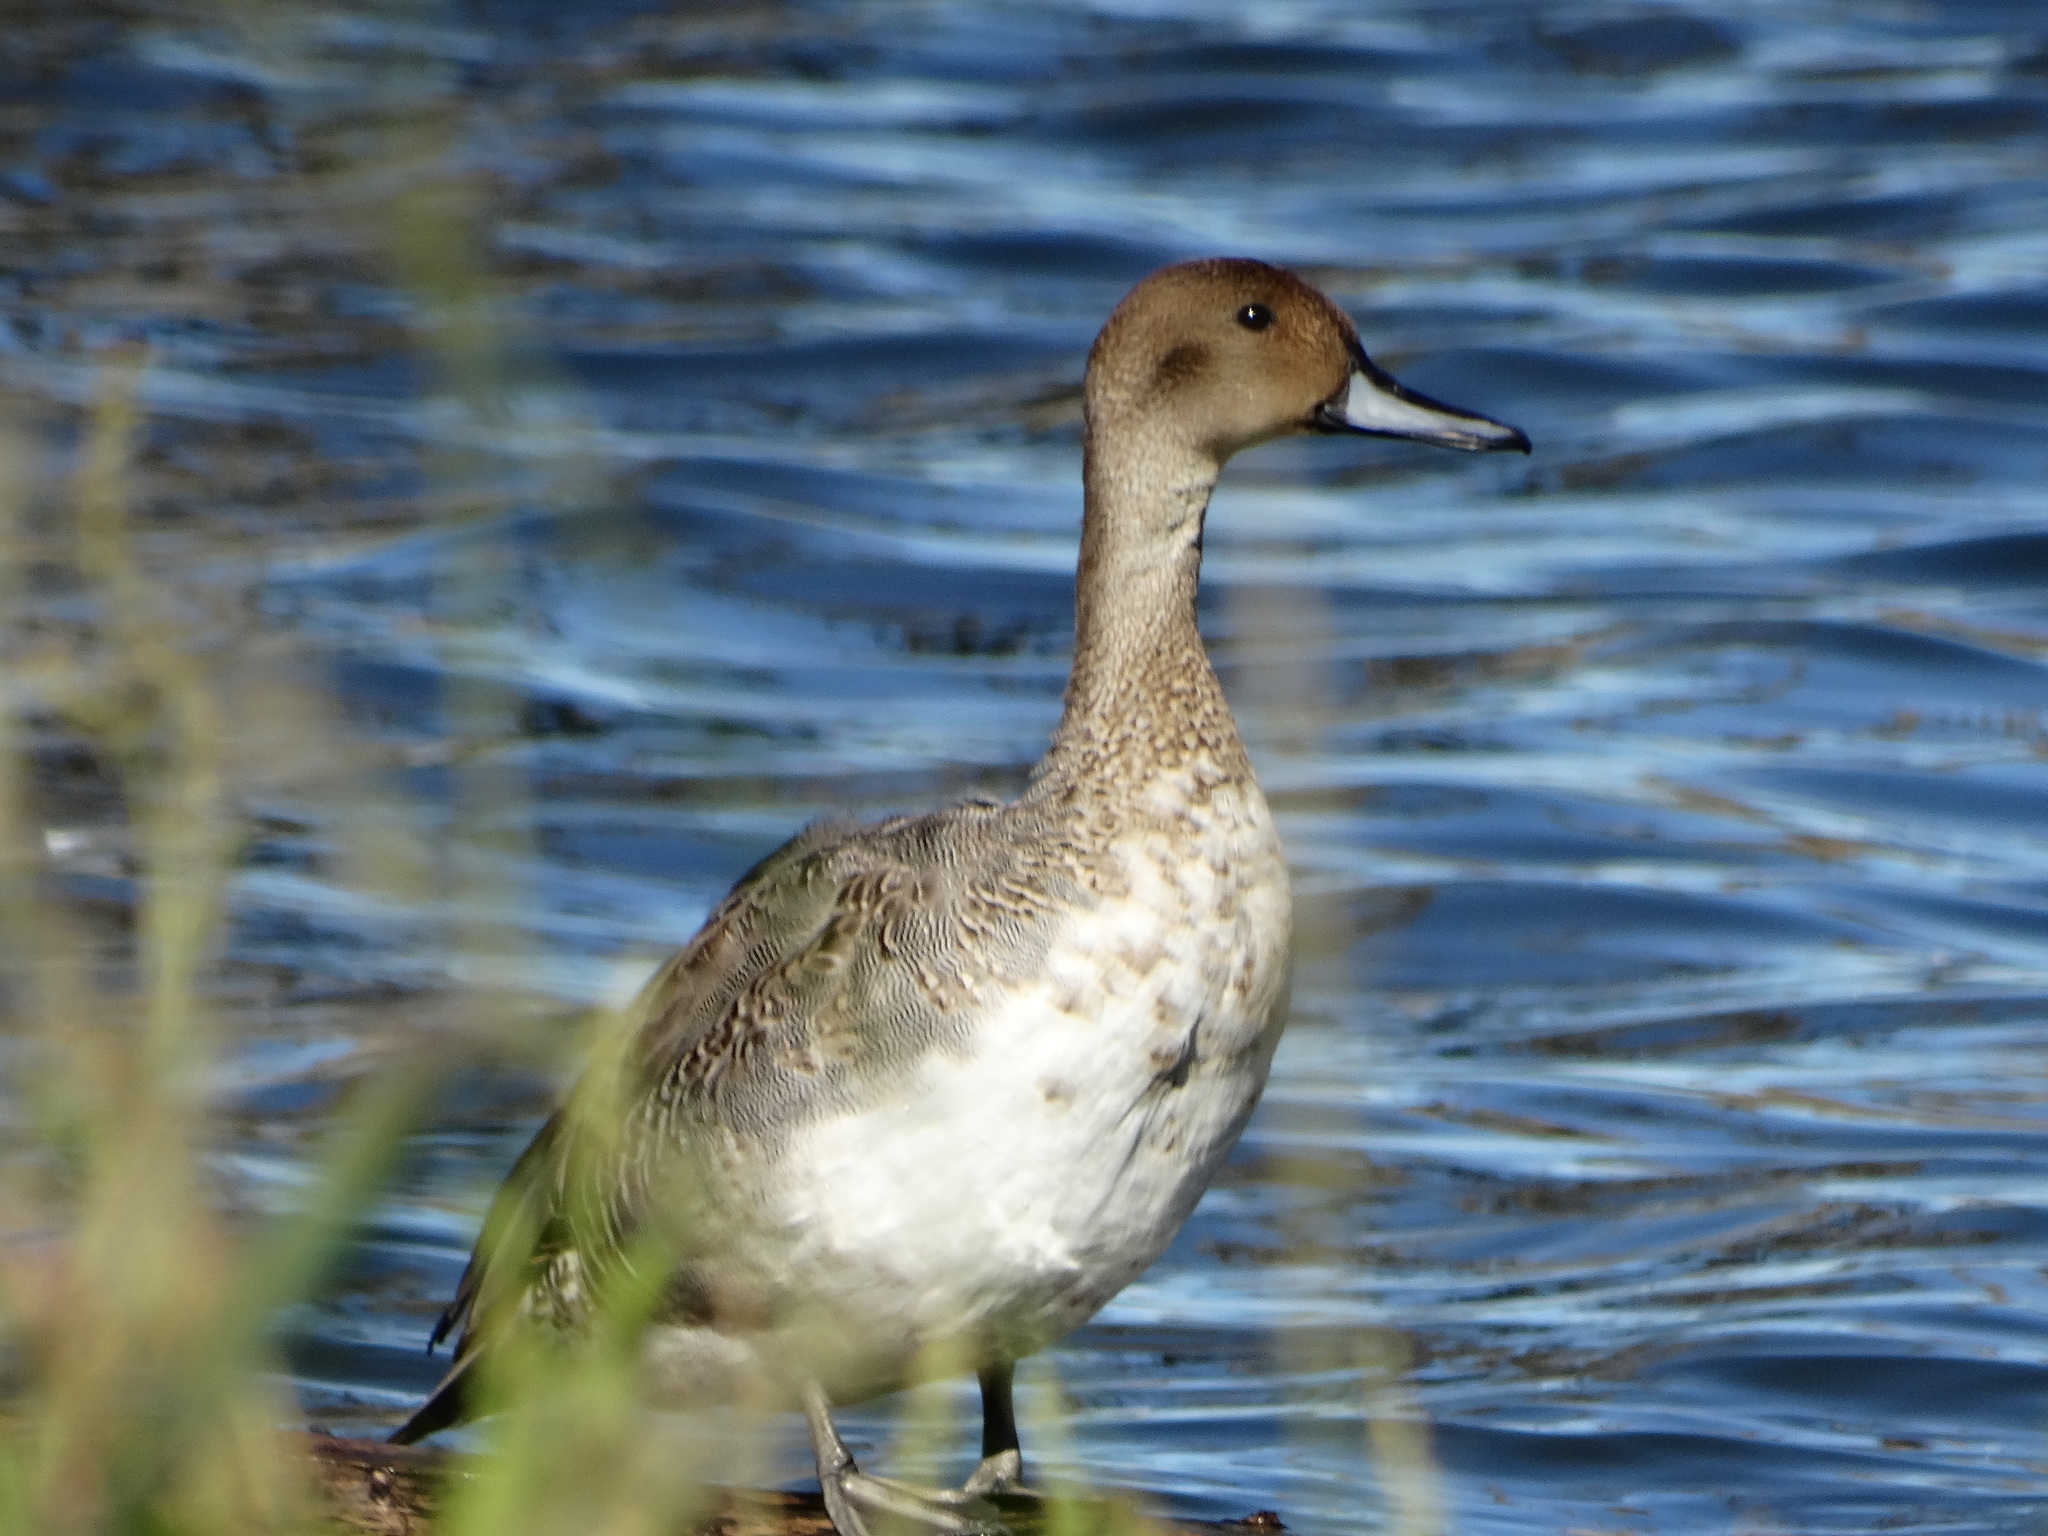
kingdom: Animalia
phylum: Chordata
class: Aves
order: Anseriformes
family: Anatidae
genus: Anas
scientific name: Anas acuta
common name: Northern pintail
